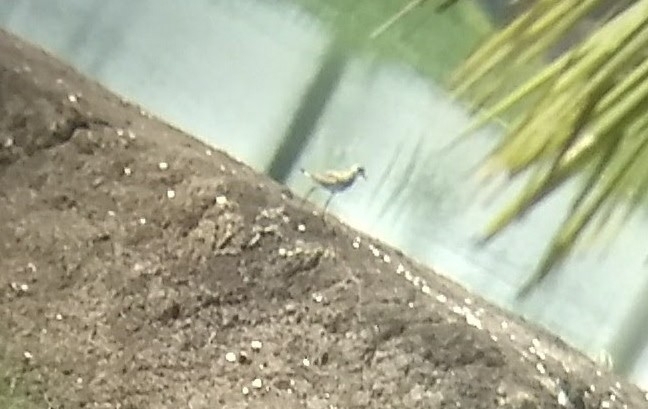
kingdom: Animalia
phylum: Chordata
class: Aves
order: Charadriiformes
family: Charadriidae
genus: Pluvialis
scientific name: Pluvialis squatarola
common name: Grey plover
